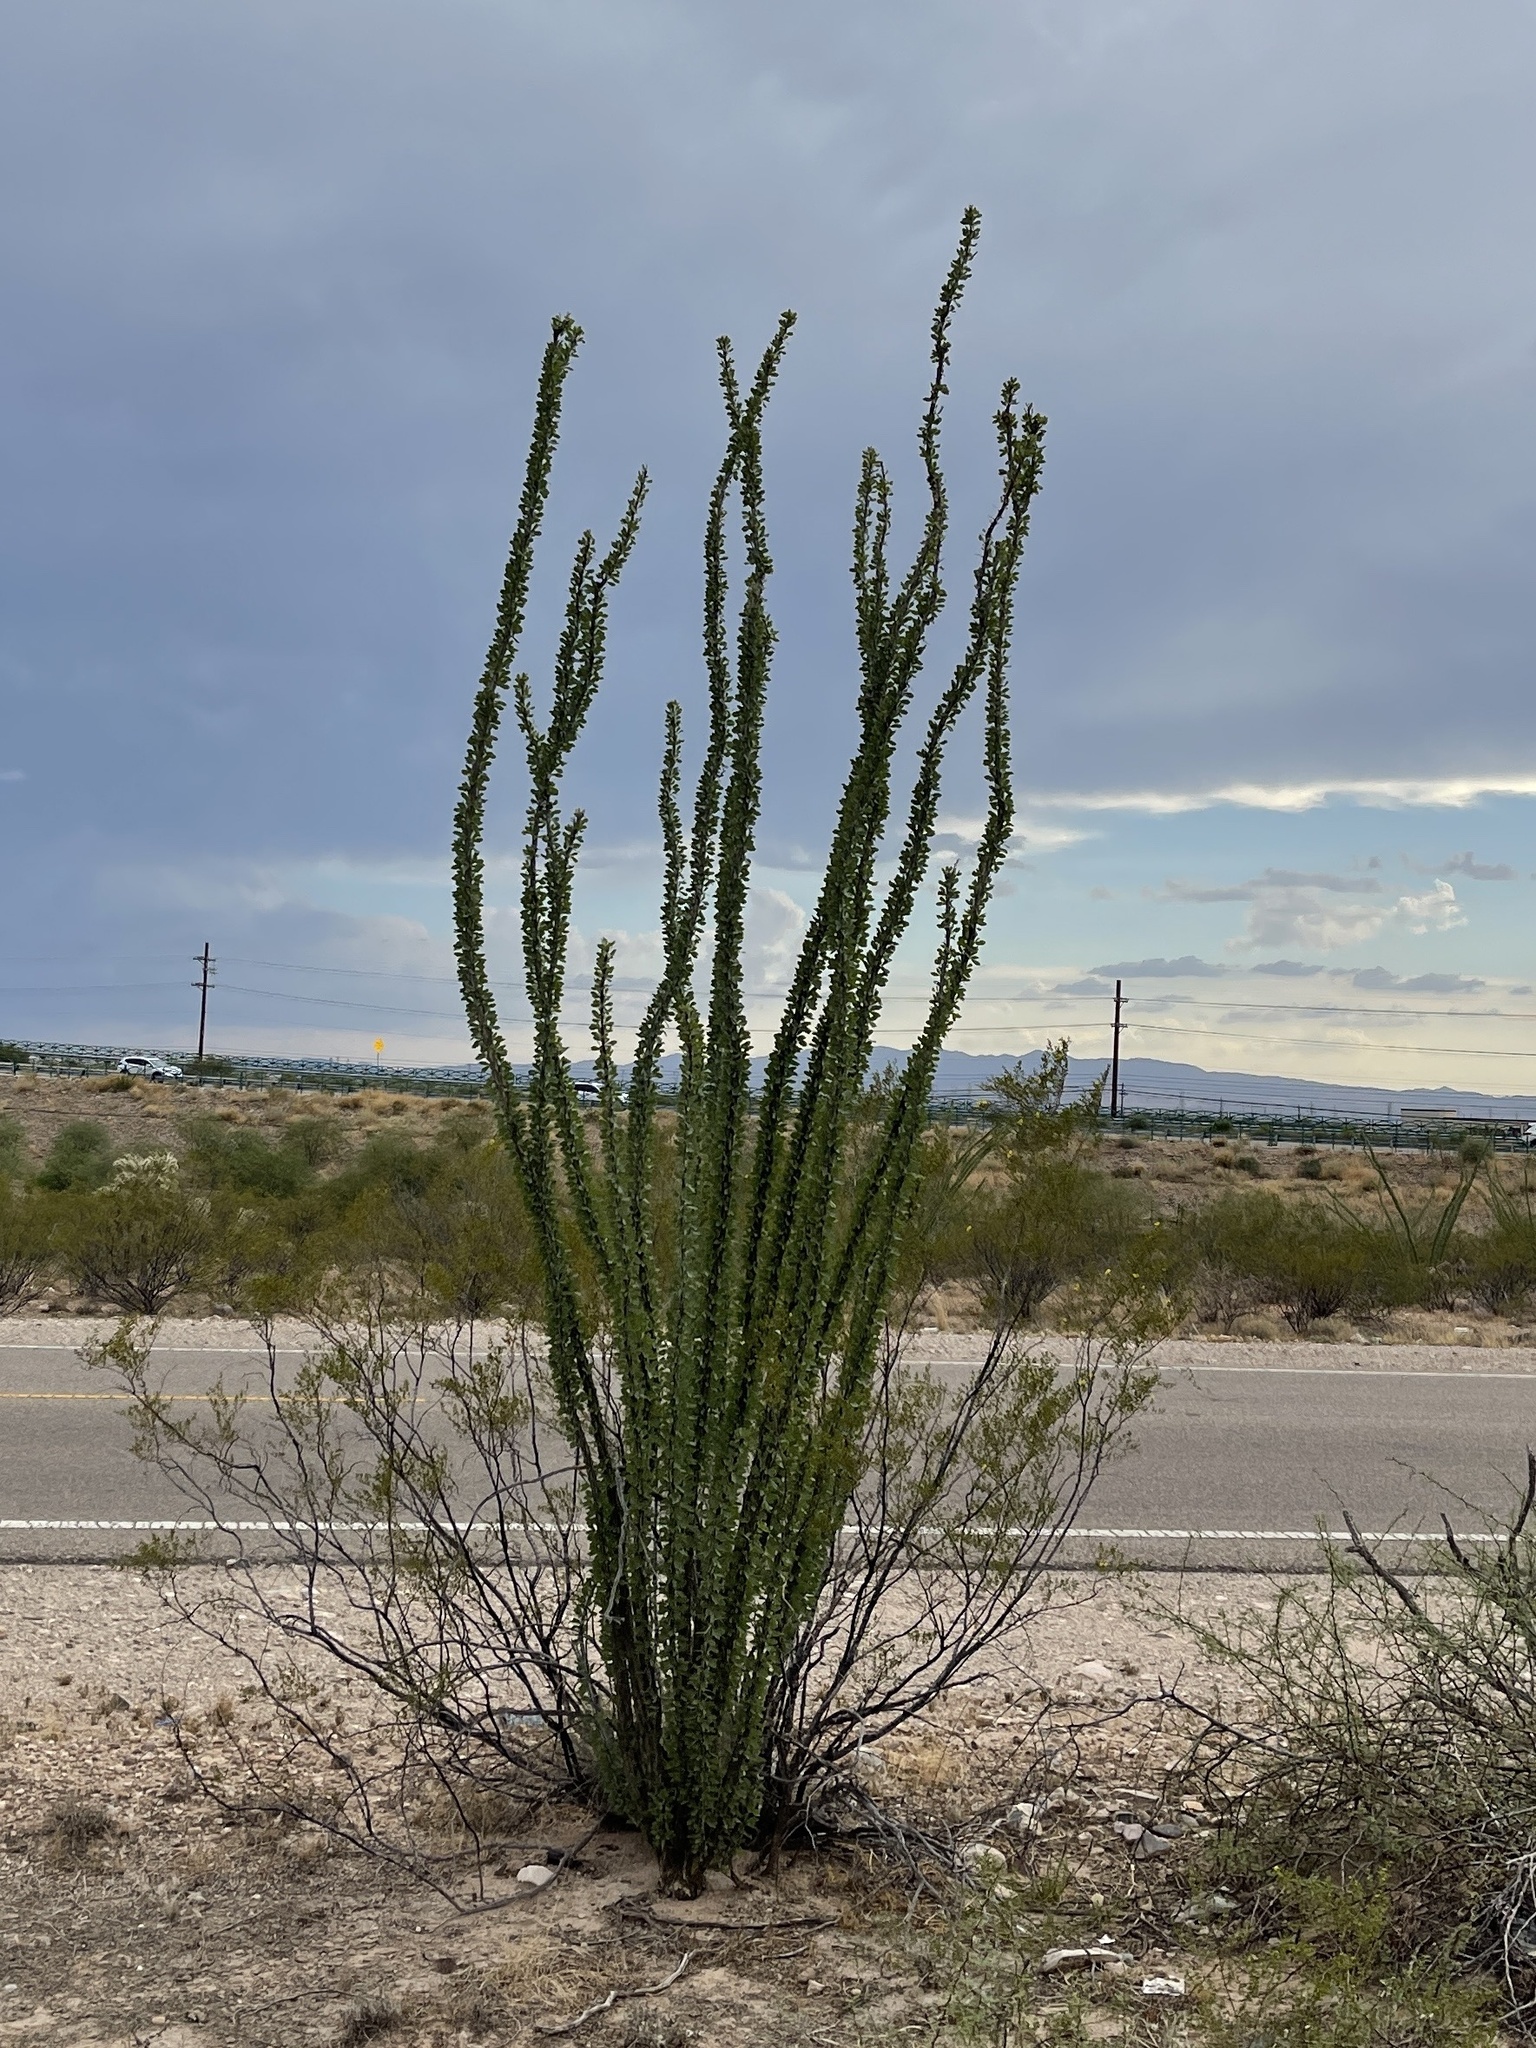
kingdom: Plantae
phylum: Tracheophyta
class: Magnoliopsida
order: Ericales
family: Fouquieriaceae
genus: Fouquieria
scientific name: Fouquieria splendens
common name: Vine-cactus
